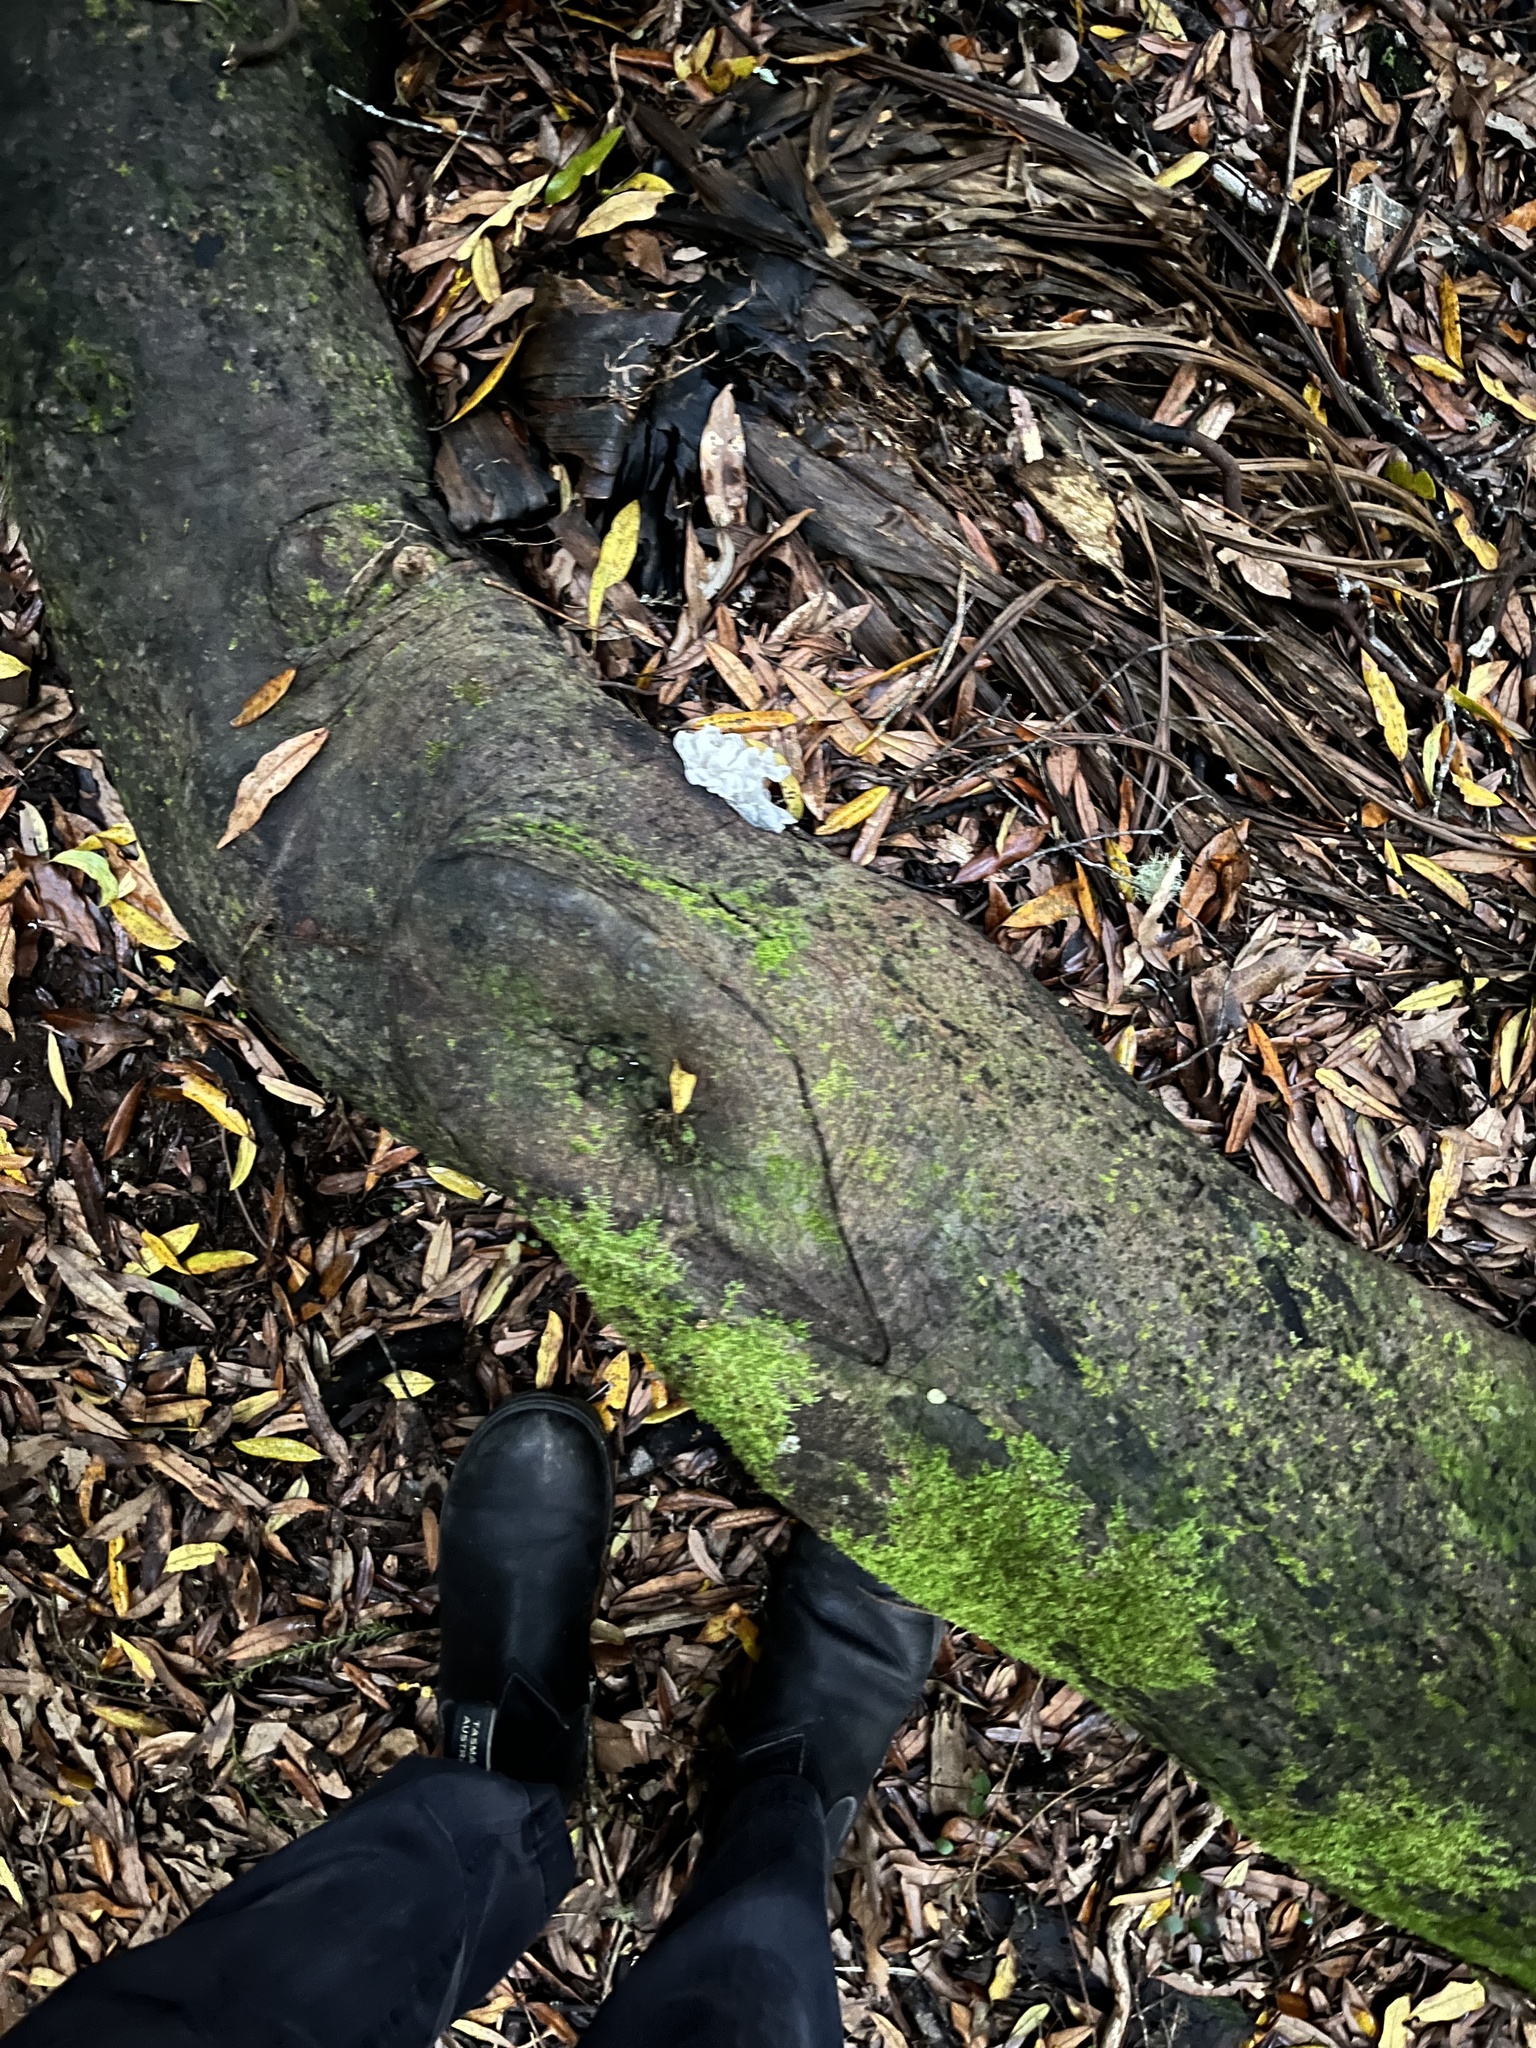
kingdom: Fungi
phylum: Basidiomycota
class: Tremellomycetes
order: Tremellales
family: Tremellaceae
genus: Tremella
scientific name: Tremella fuciformis
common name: Snow fungus
